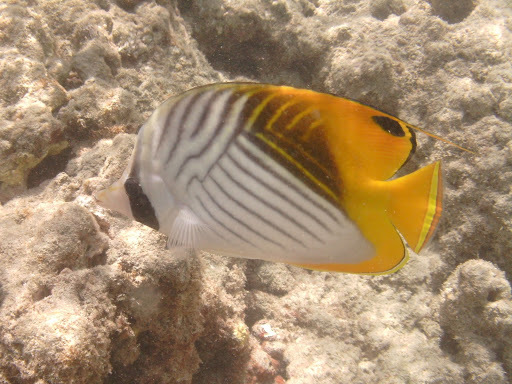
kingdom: Animalia
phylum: Chordata
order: Perciformes
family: Chaetodontidae
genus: Chaetodon
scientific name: Chaetodon auriga
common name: Threadfin butterflyfish
